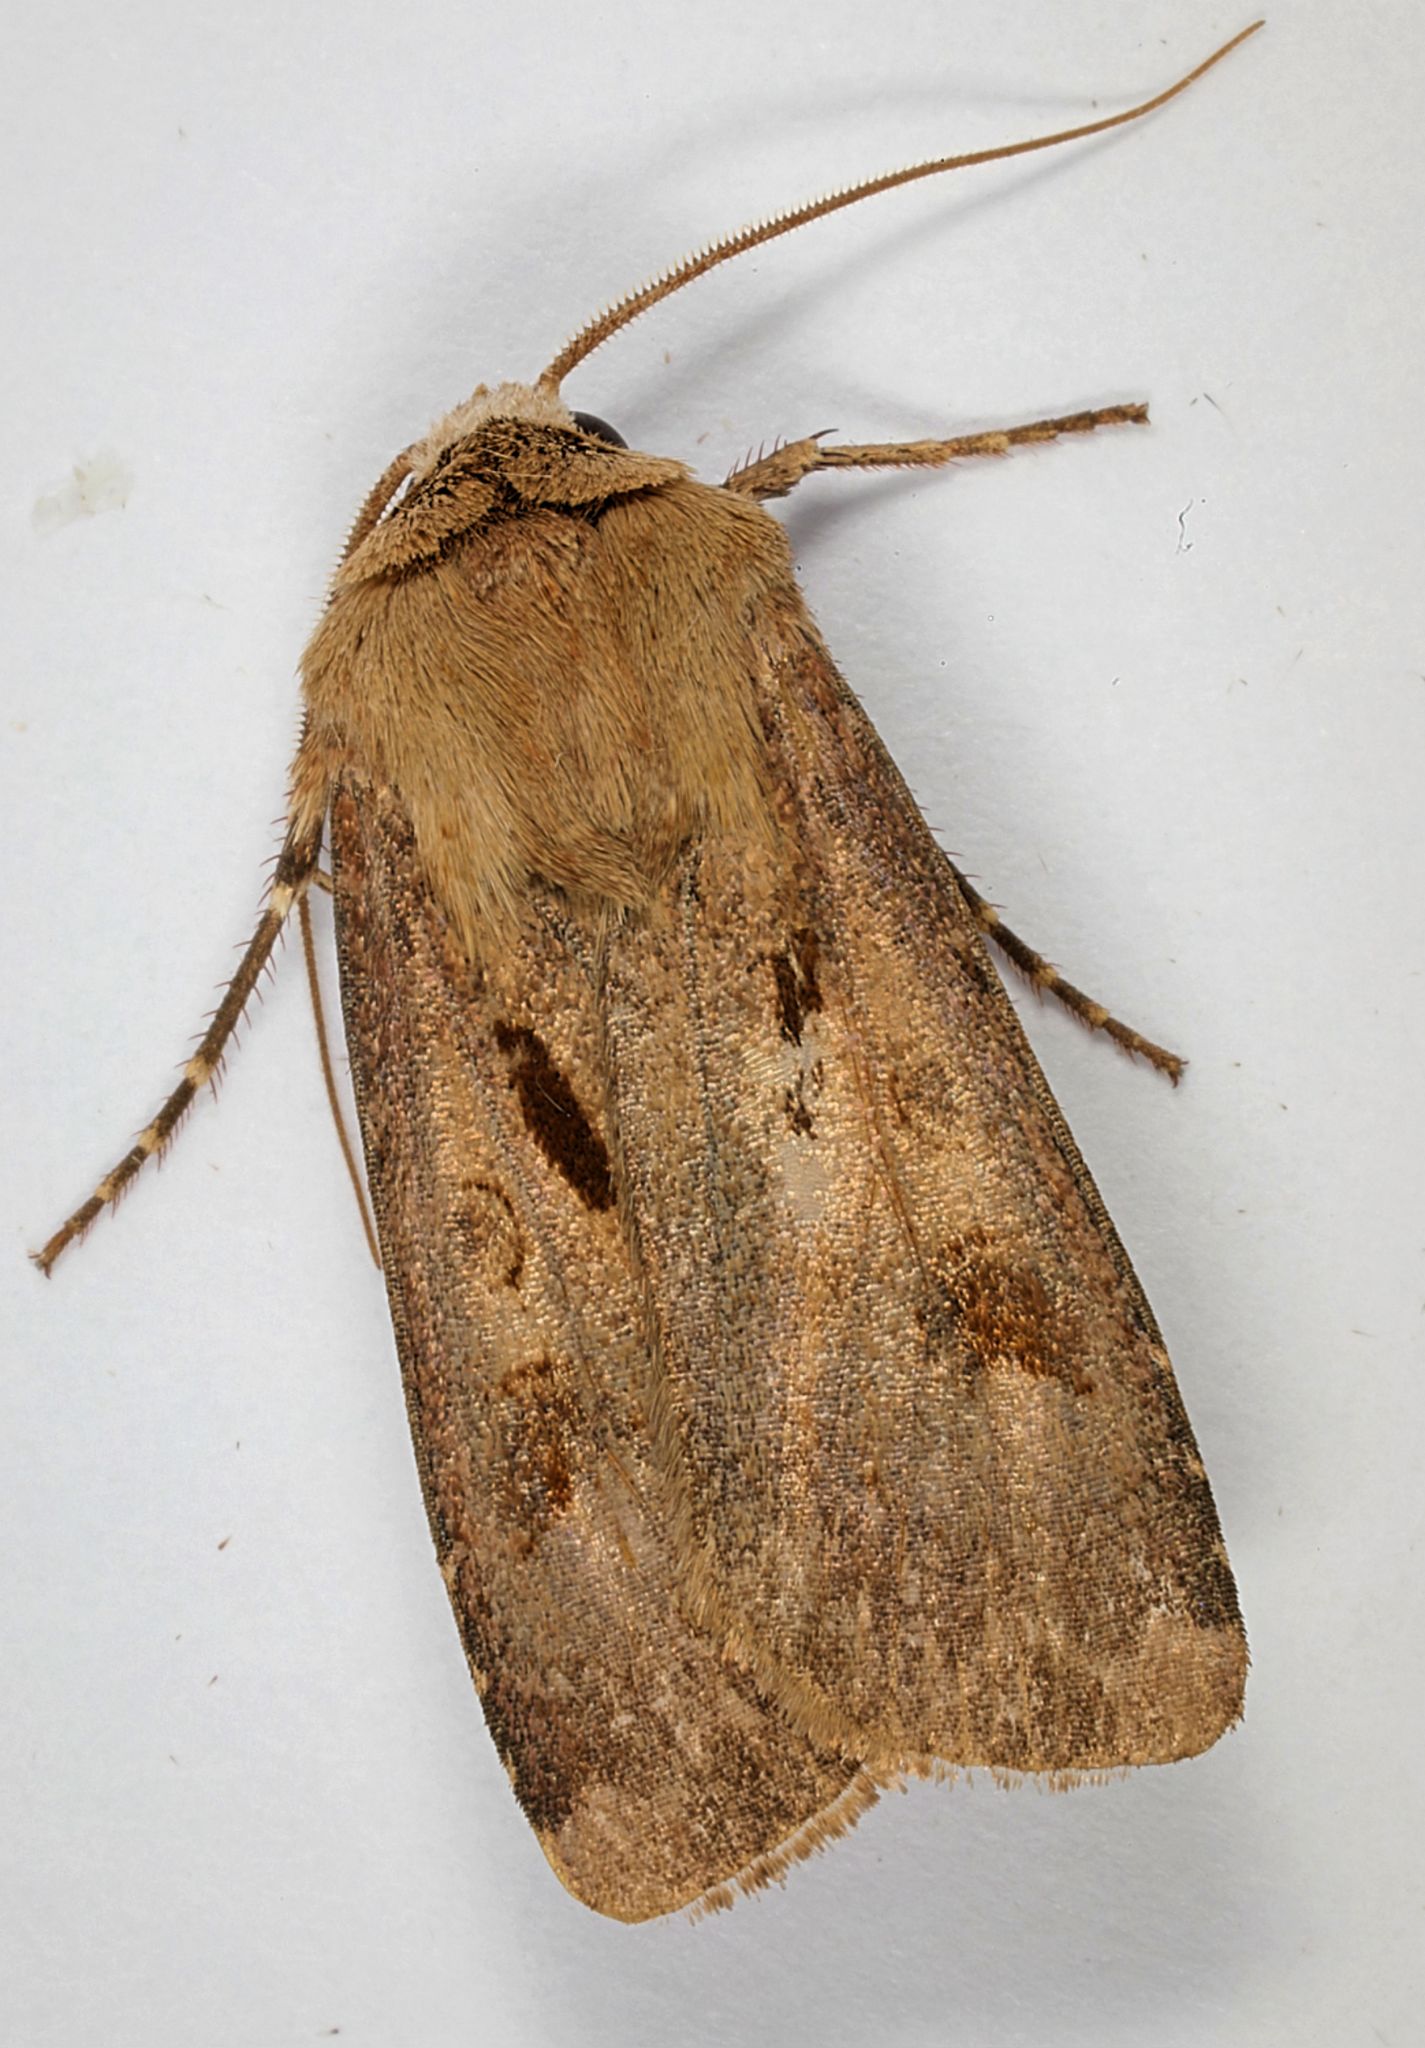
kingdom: Animalia
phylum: Arthropoda
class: Insecta
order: Lepidoptera
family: Noctuidae
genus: Agrotis
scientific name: Agrotis exclamationis
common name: Heart and dart
